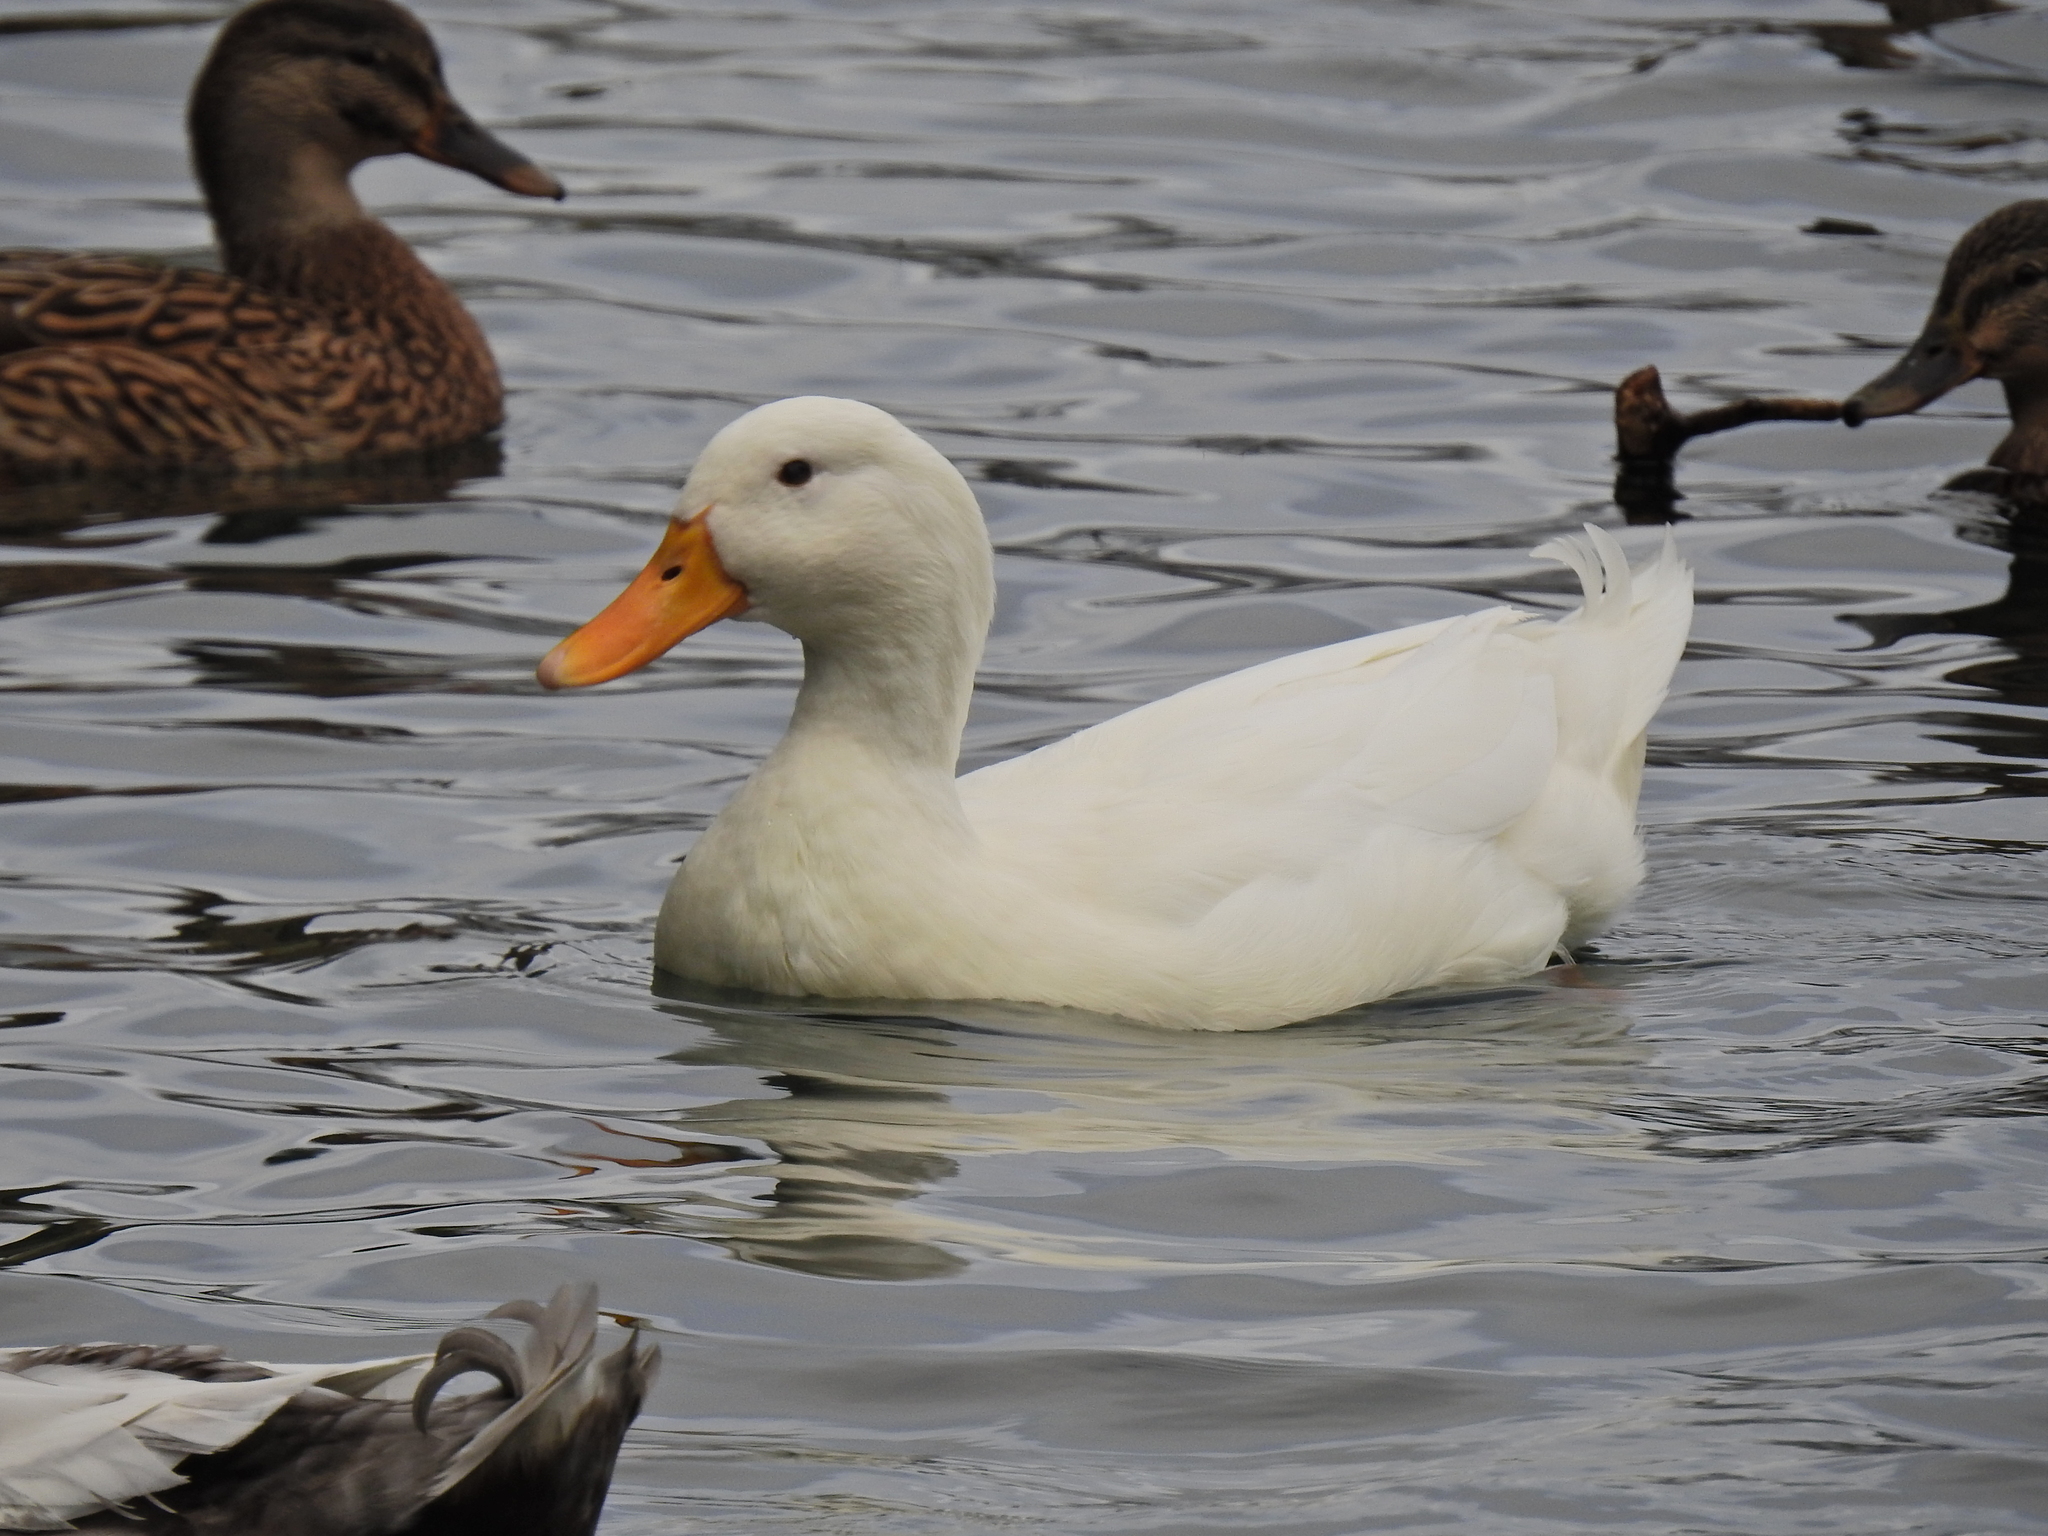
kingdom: Animalia
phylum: Chordata
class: Aves
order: Anseriformes
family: Anatidae
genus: Anas
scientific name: Anas platyrhynchos
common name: Mallard
